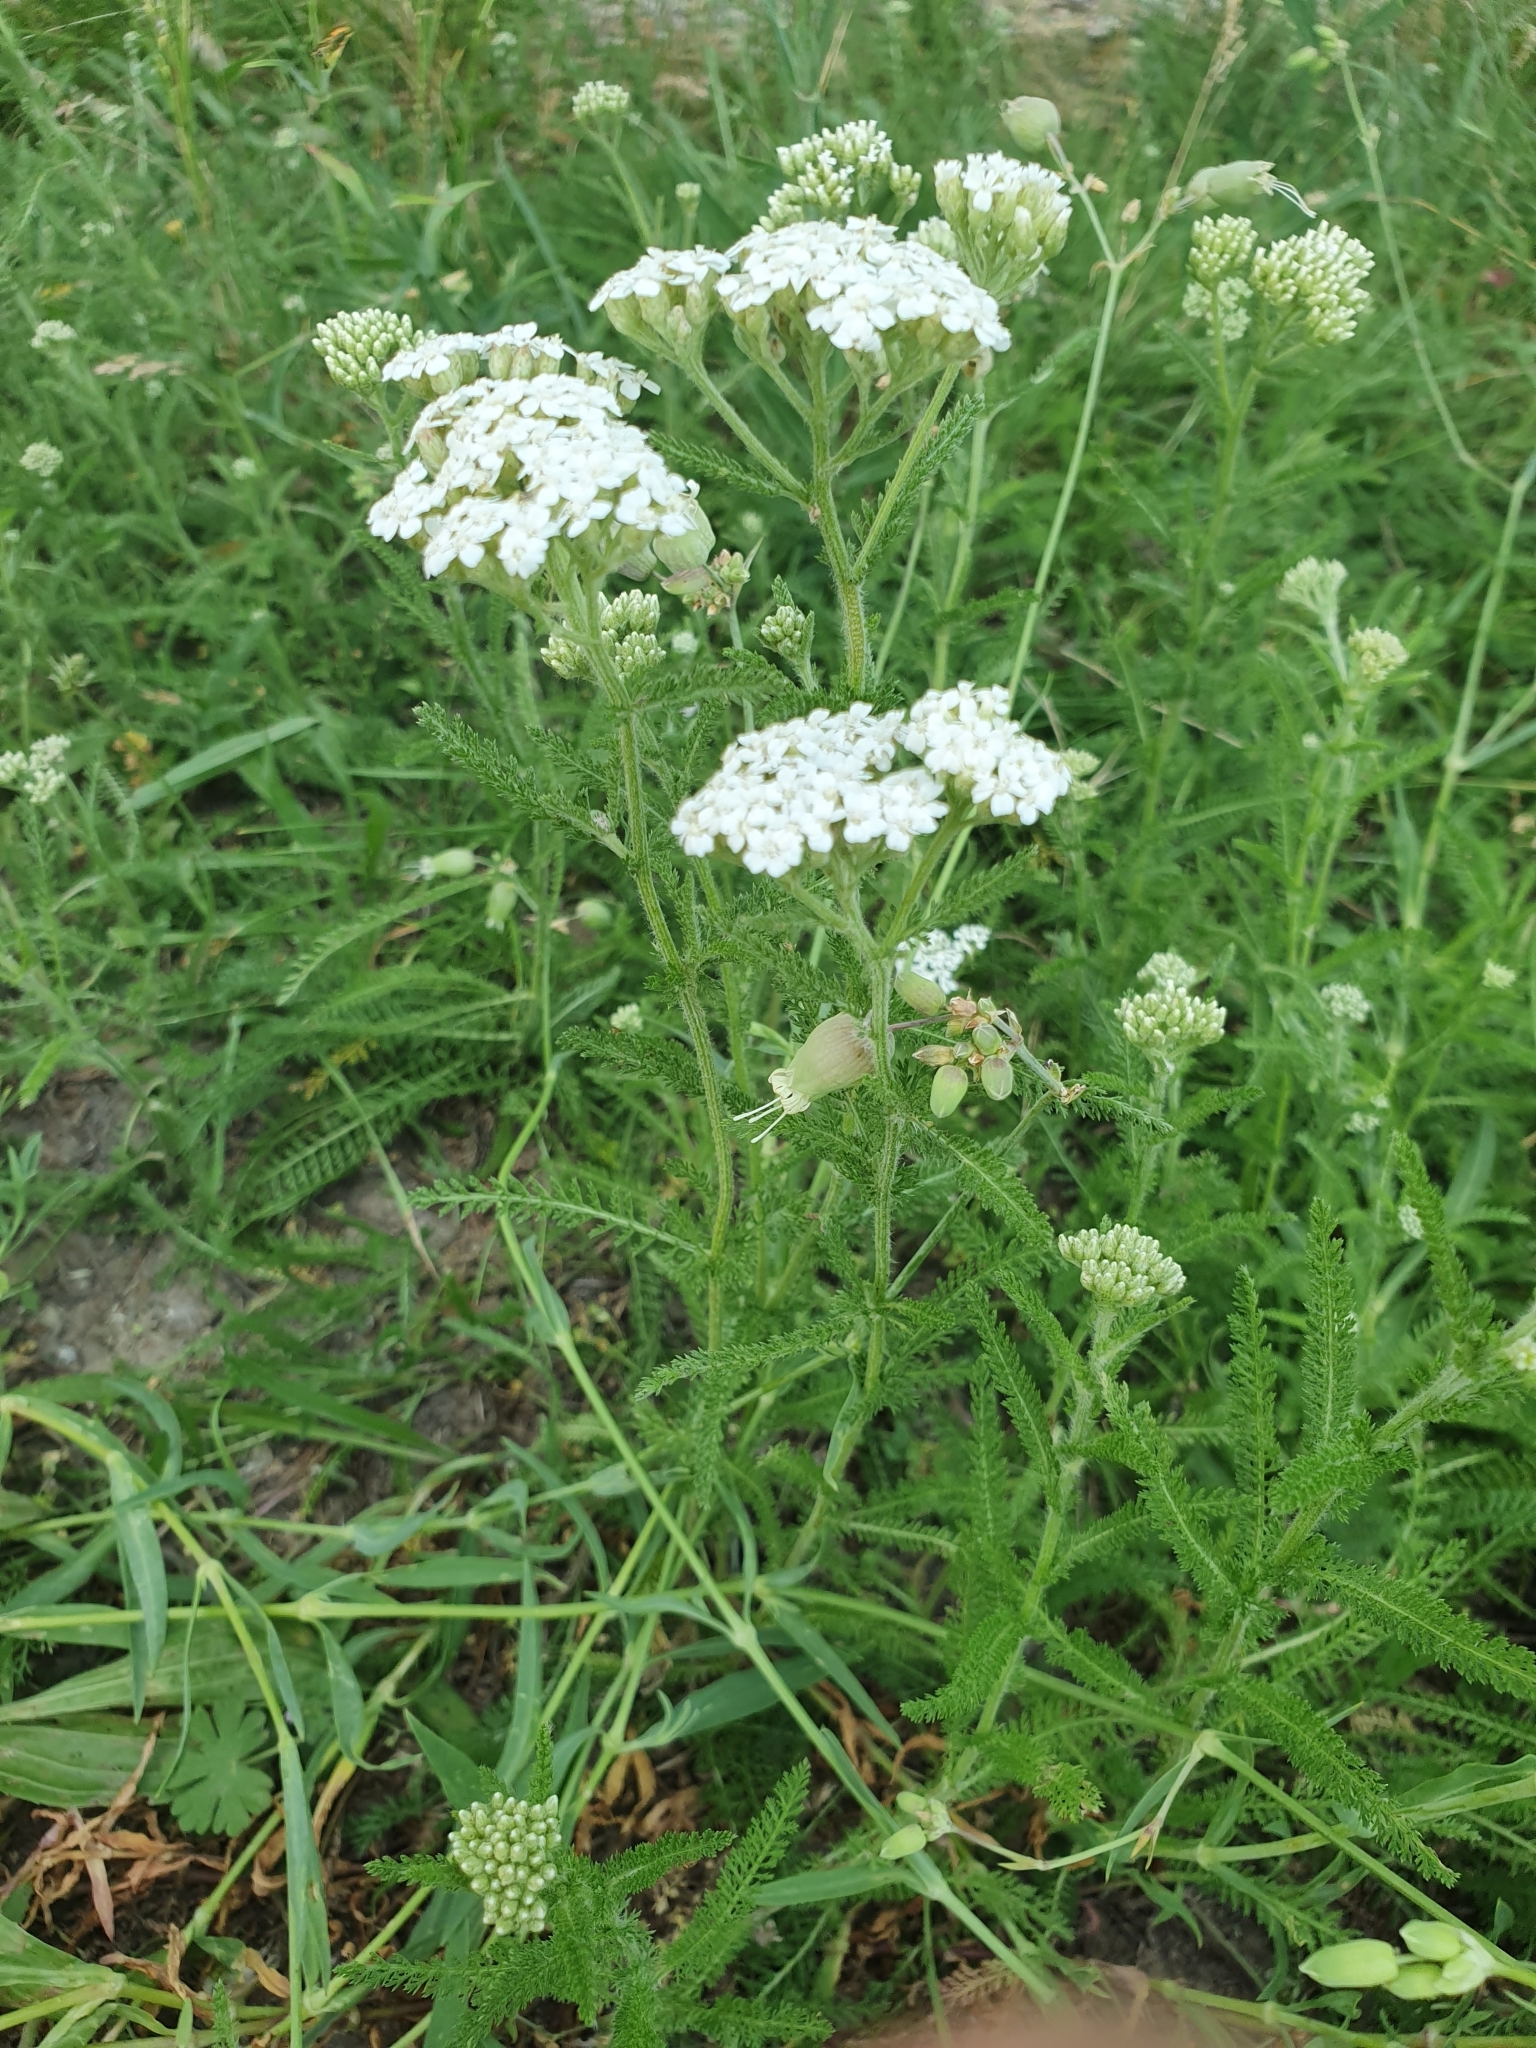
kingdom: Plantae
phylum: Tracheophyta
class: Magnoliopsida
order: Asterales
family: Asteraceae
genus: Achillea
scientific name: Achillea millefolium
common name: Yarrow
